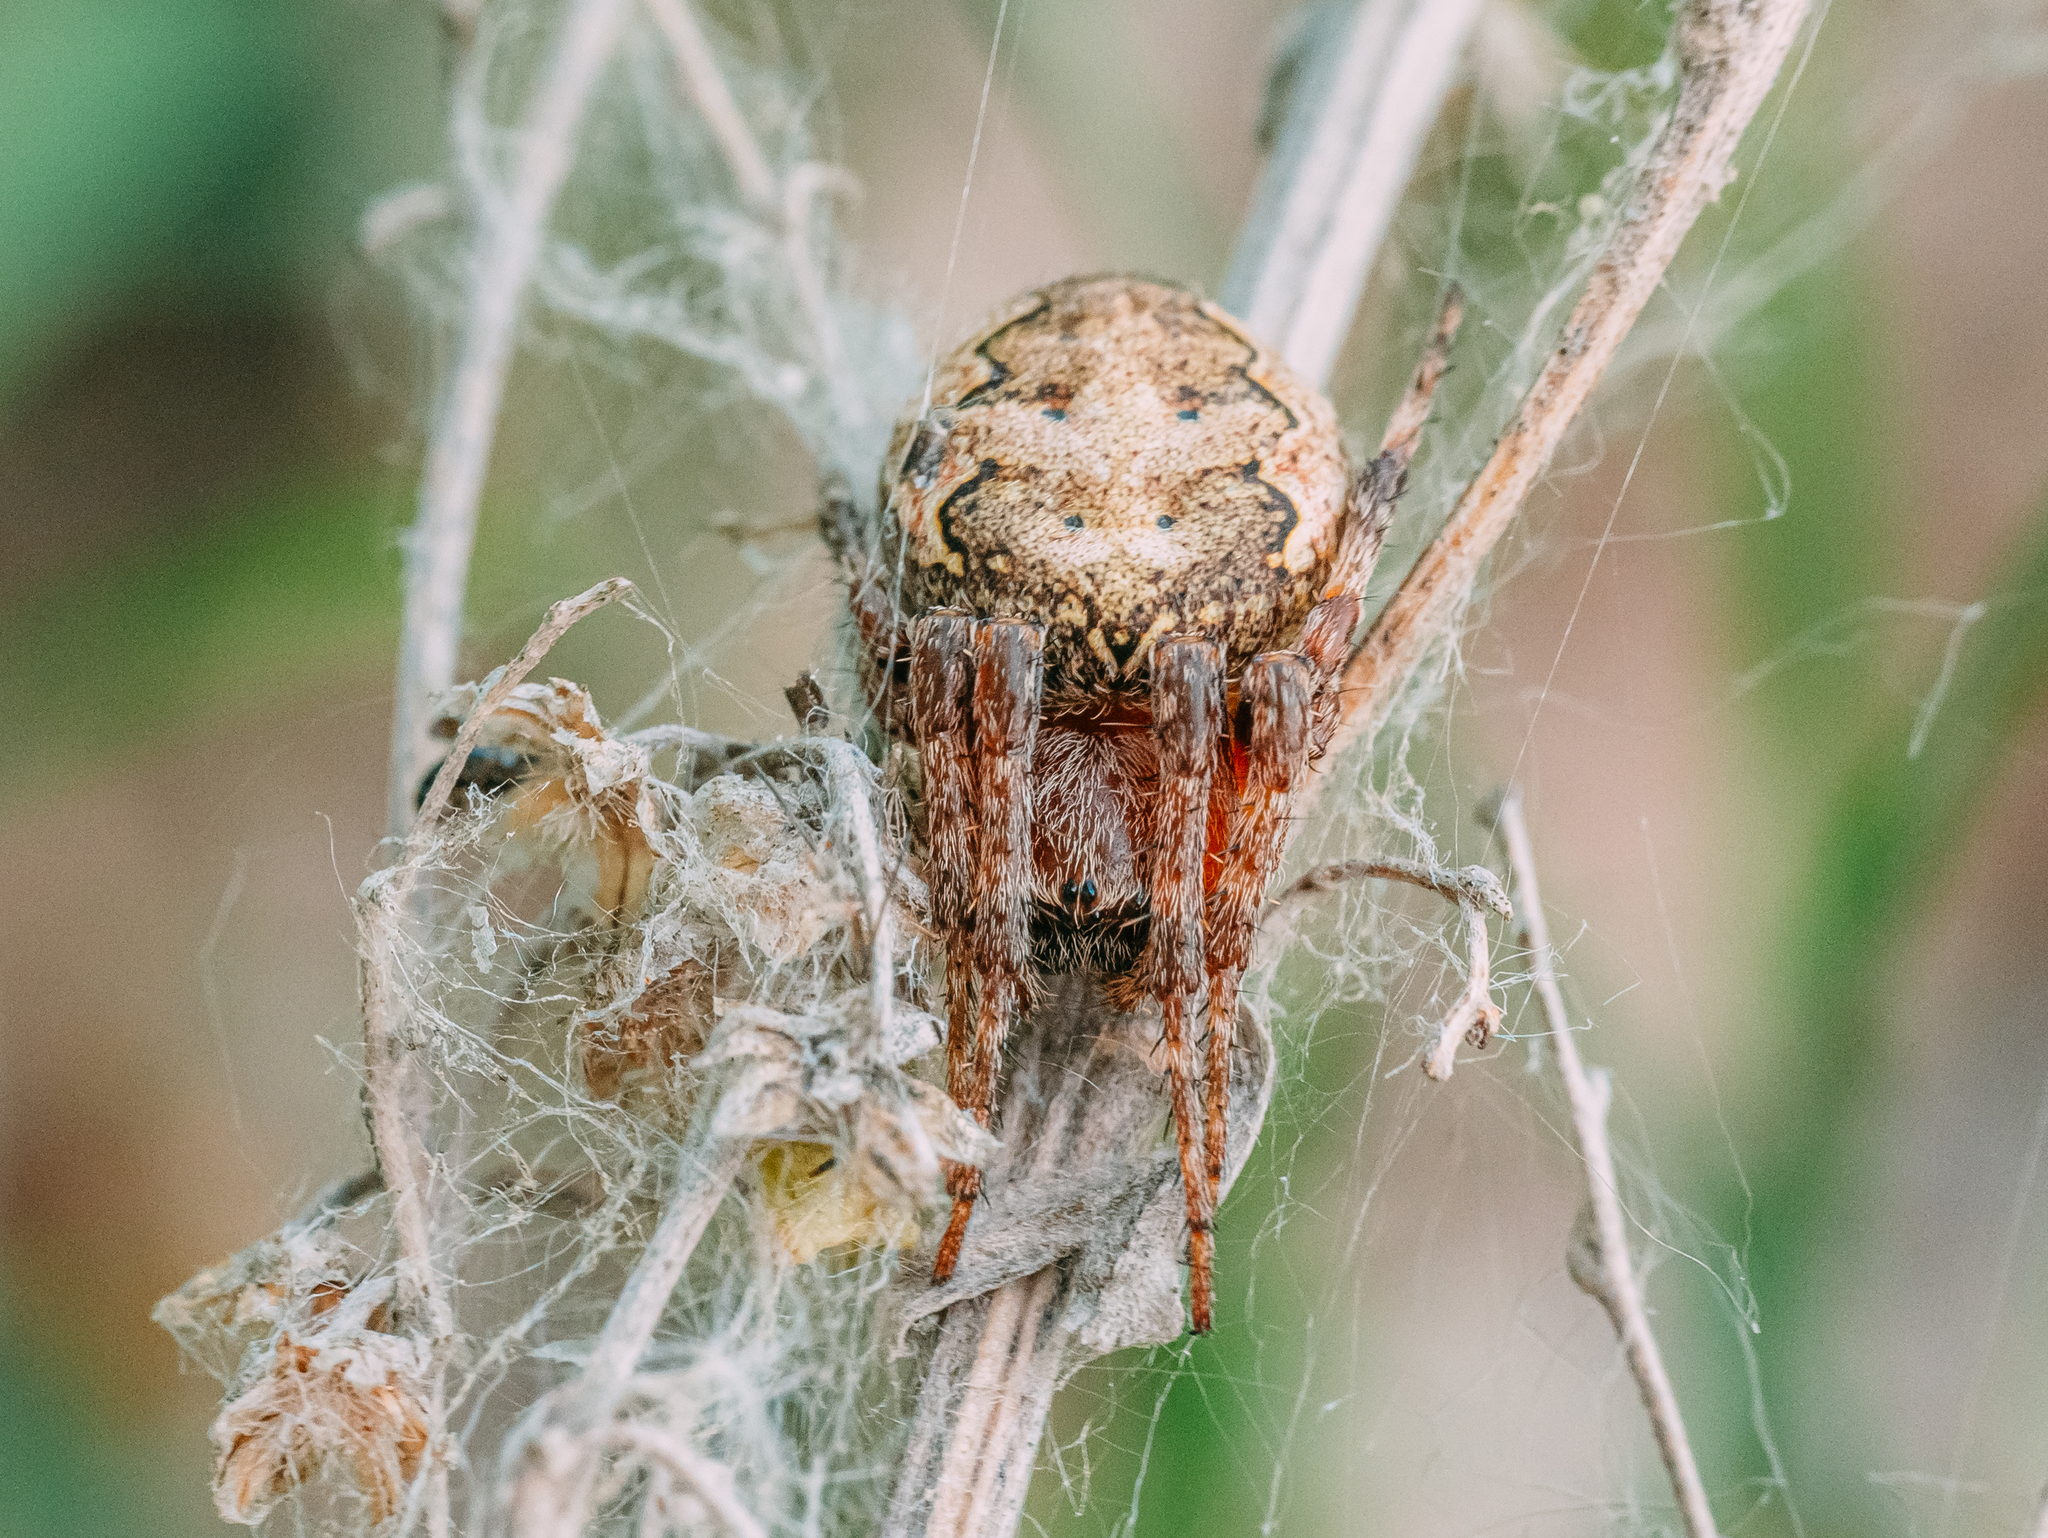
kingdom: Animalia
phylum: Arthropoda
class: Arachnida
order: Araneae
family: Araneidae
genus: Larinioides
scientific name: Larinioides patagiatus
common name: Ornamental orbweaver
